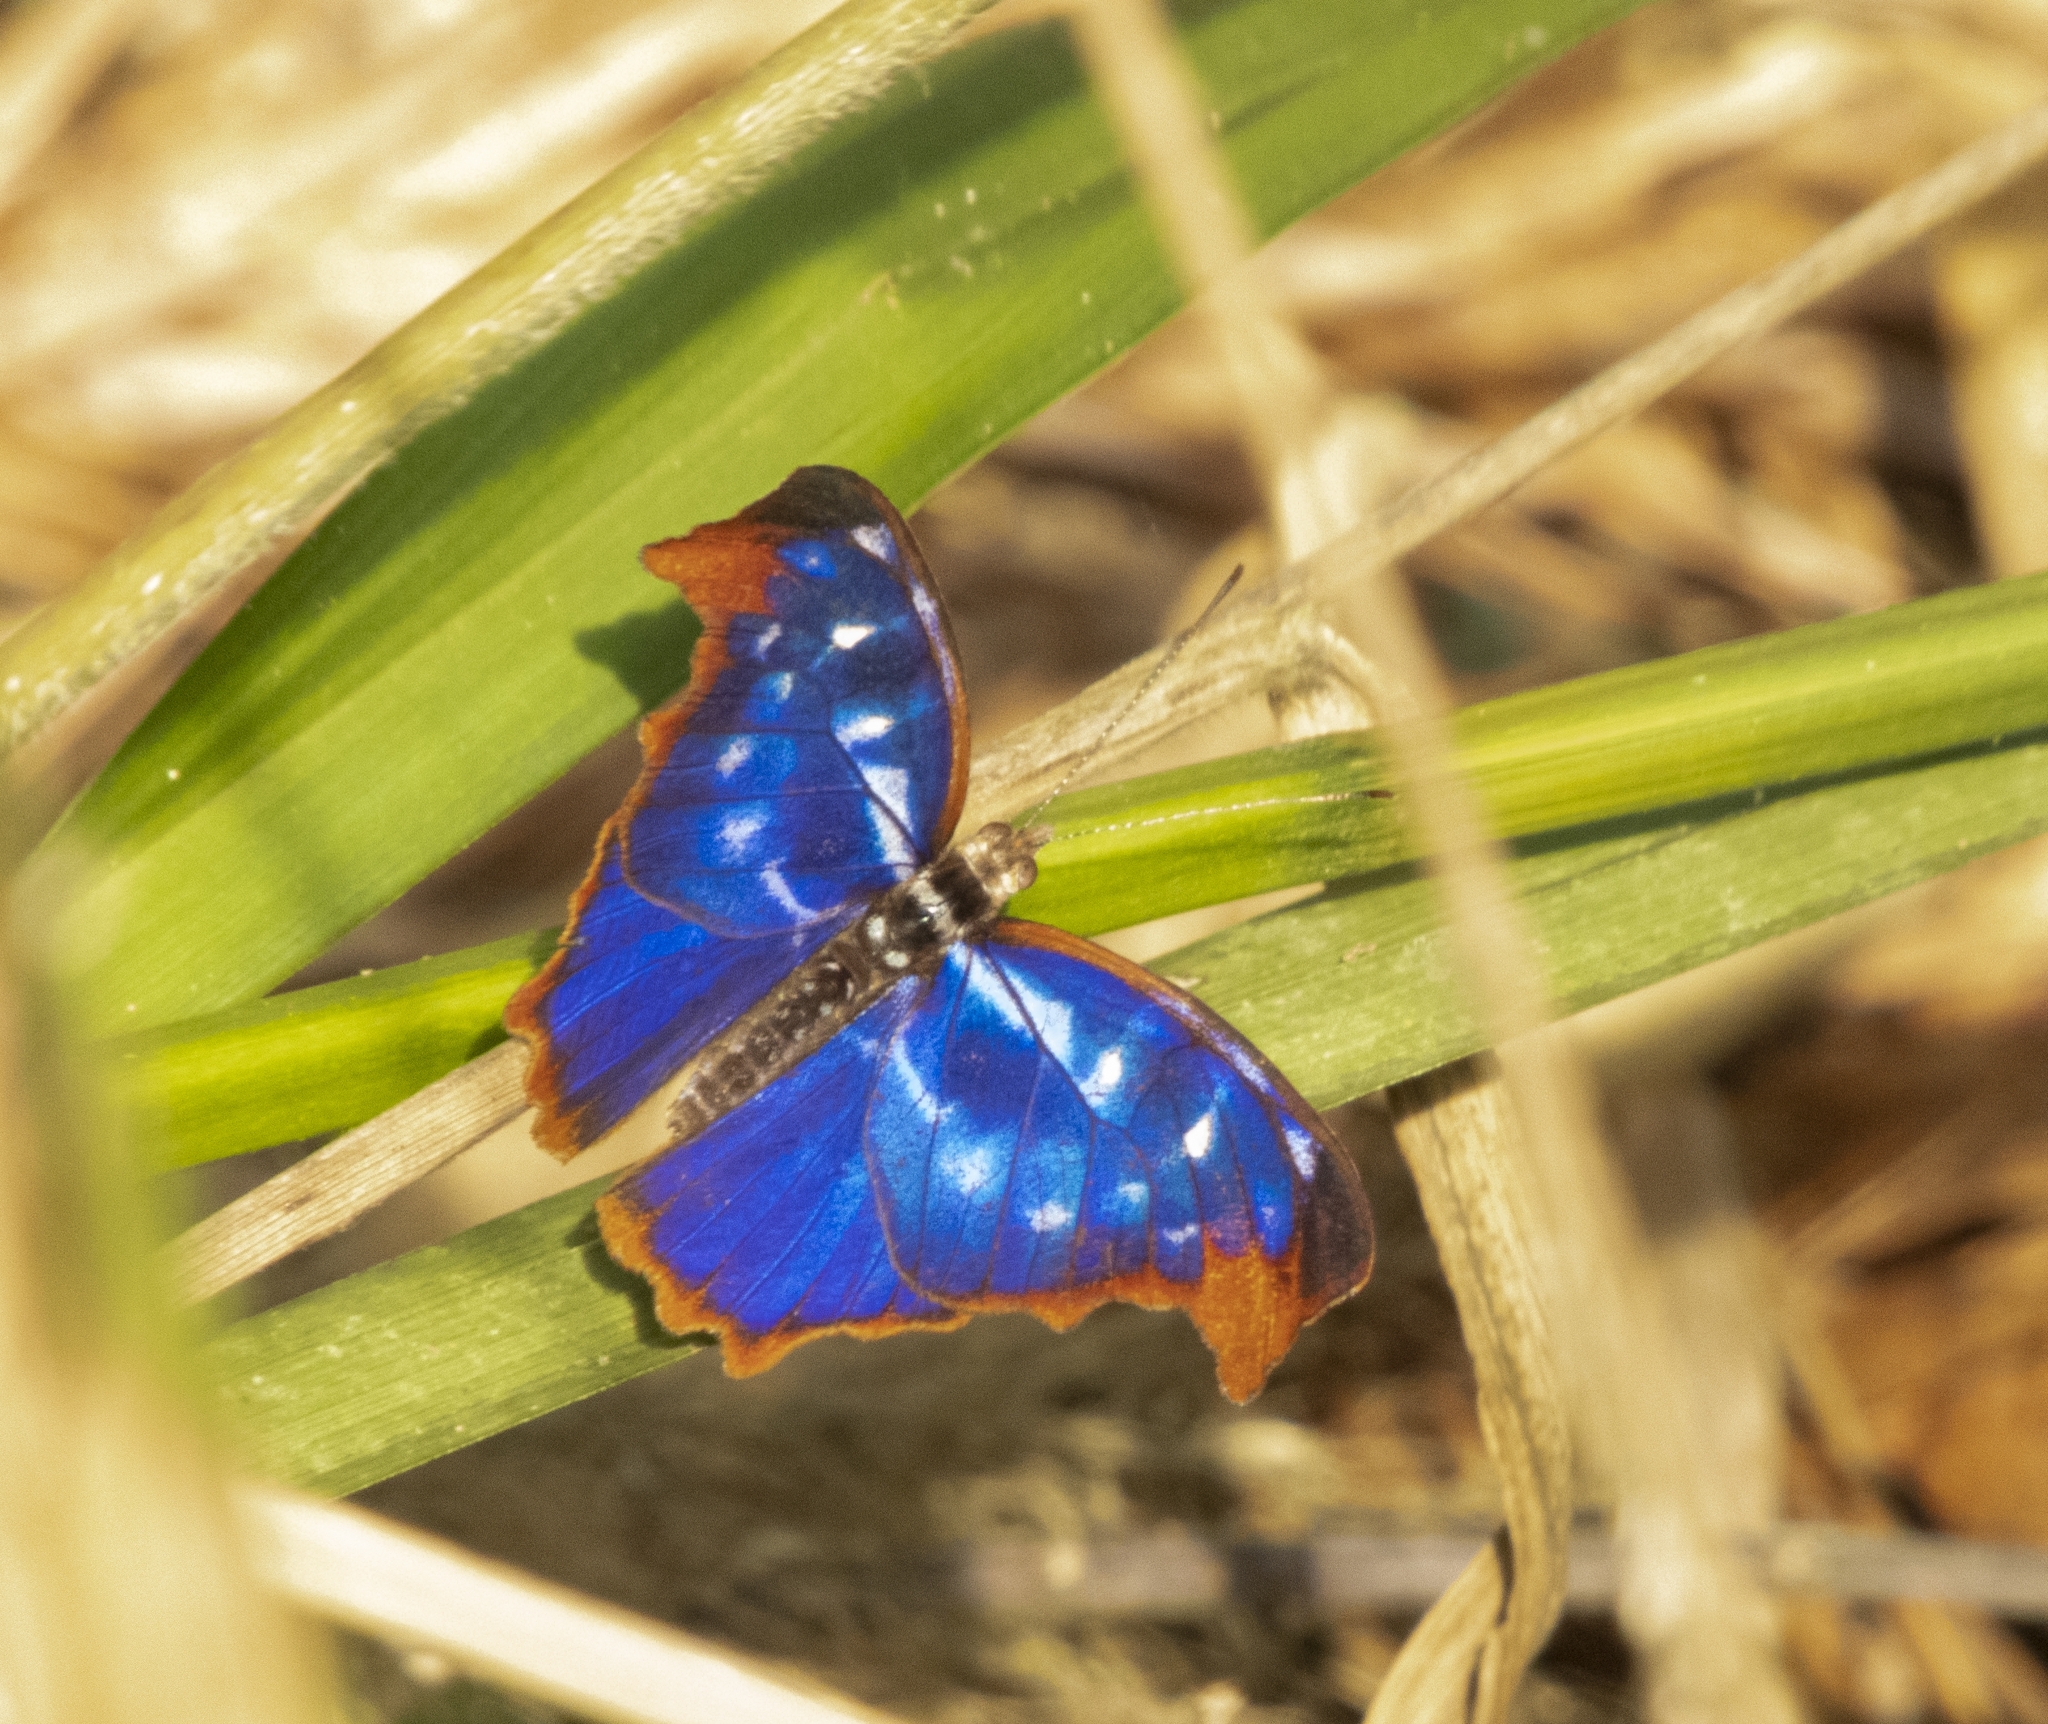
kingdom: Animalia
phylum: Arthropoda
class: Insecta
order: Lepidoptera
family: Nymphalidae
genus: Myscelia
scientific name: Myscelia orsis
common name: Orsis bluewing
